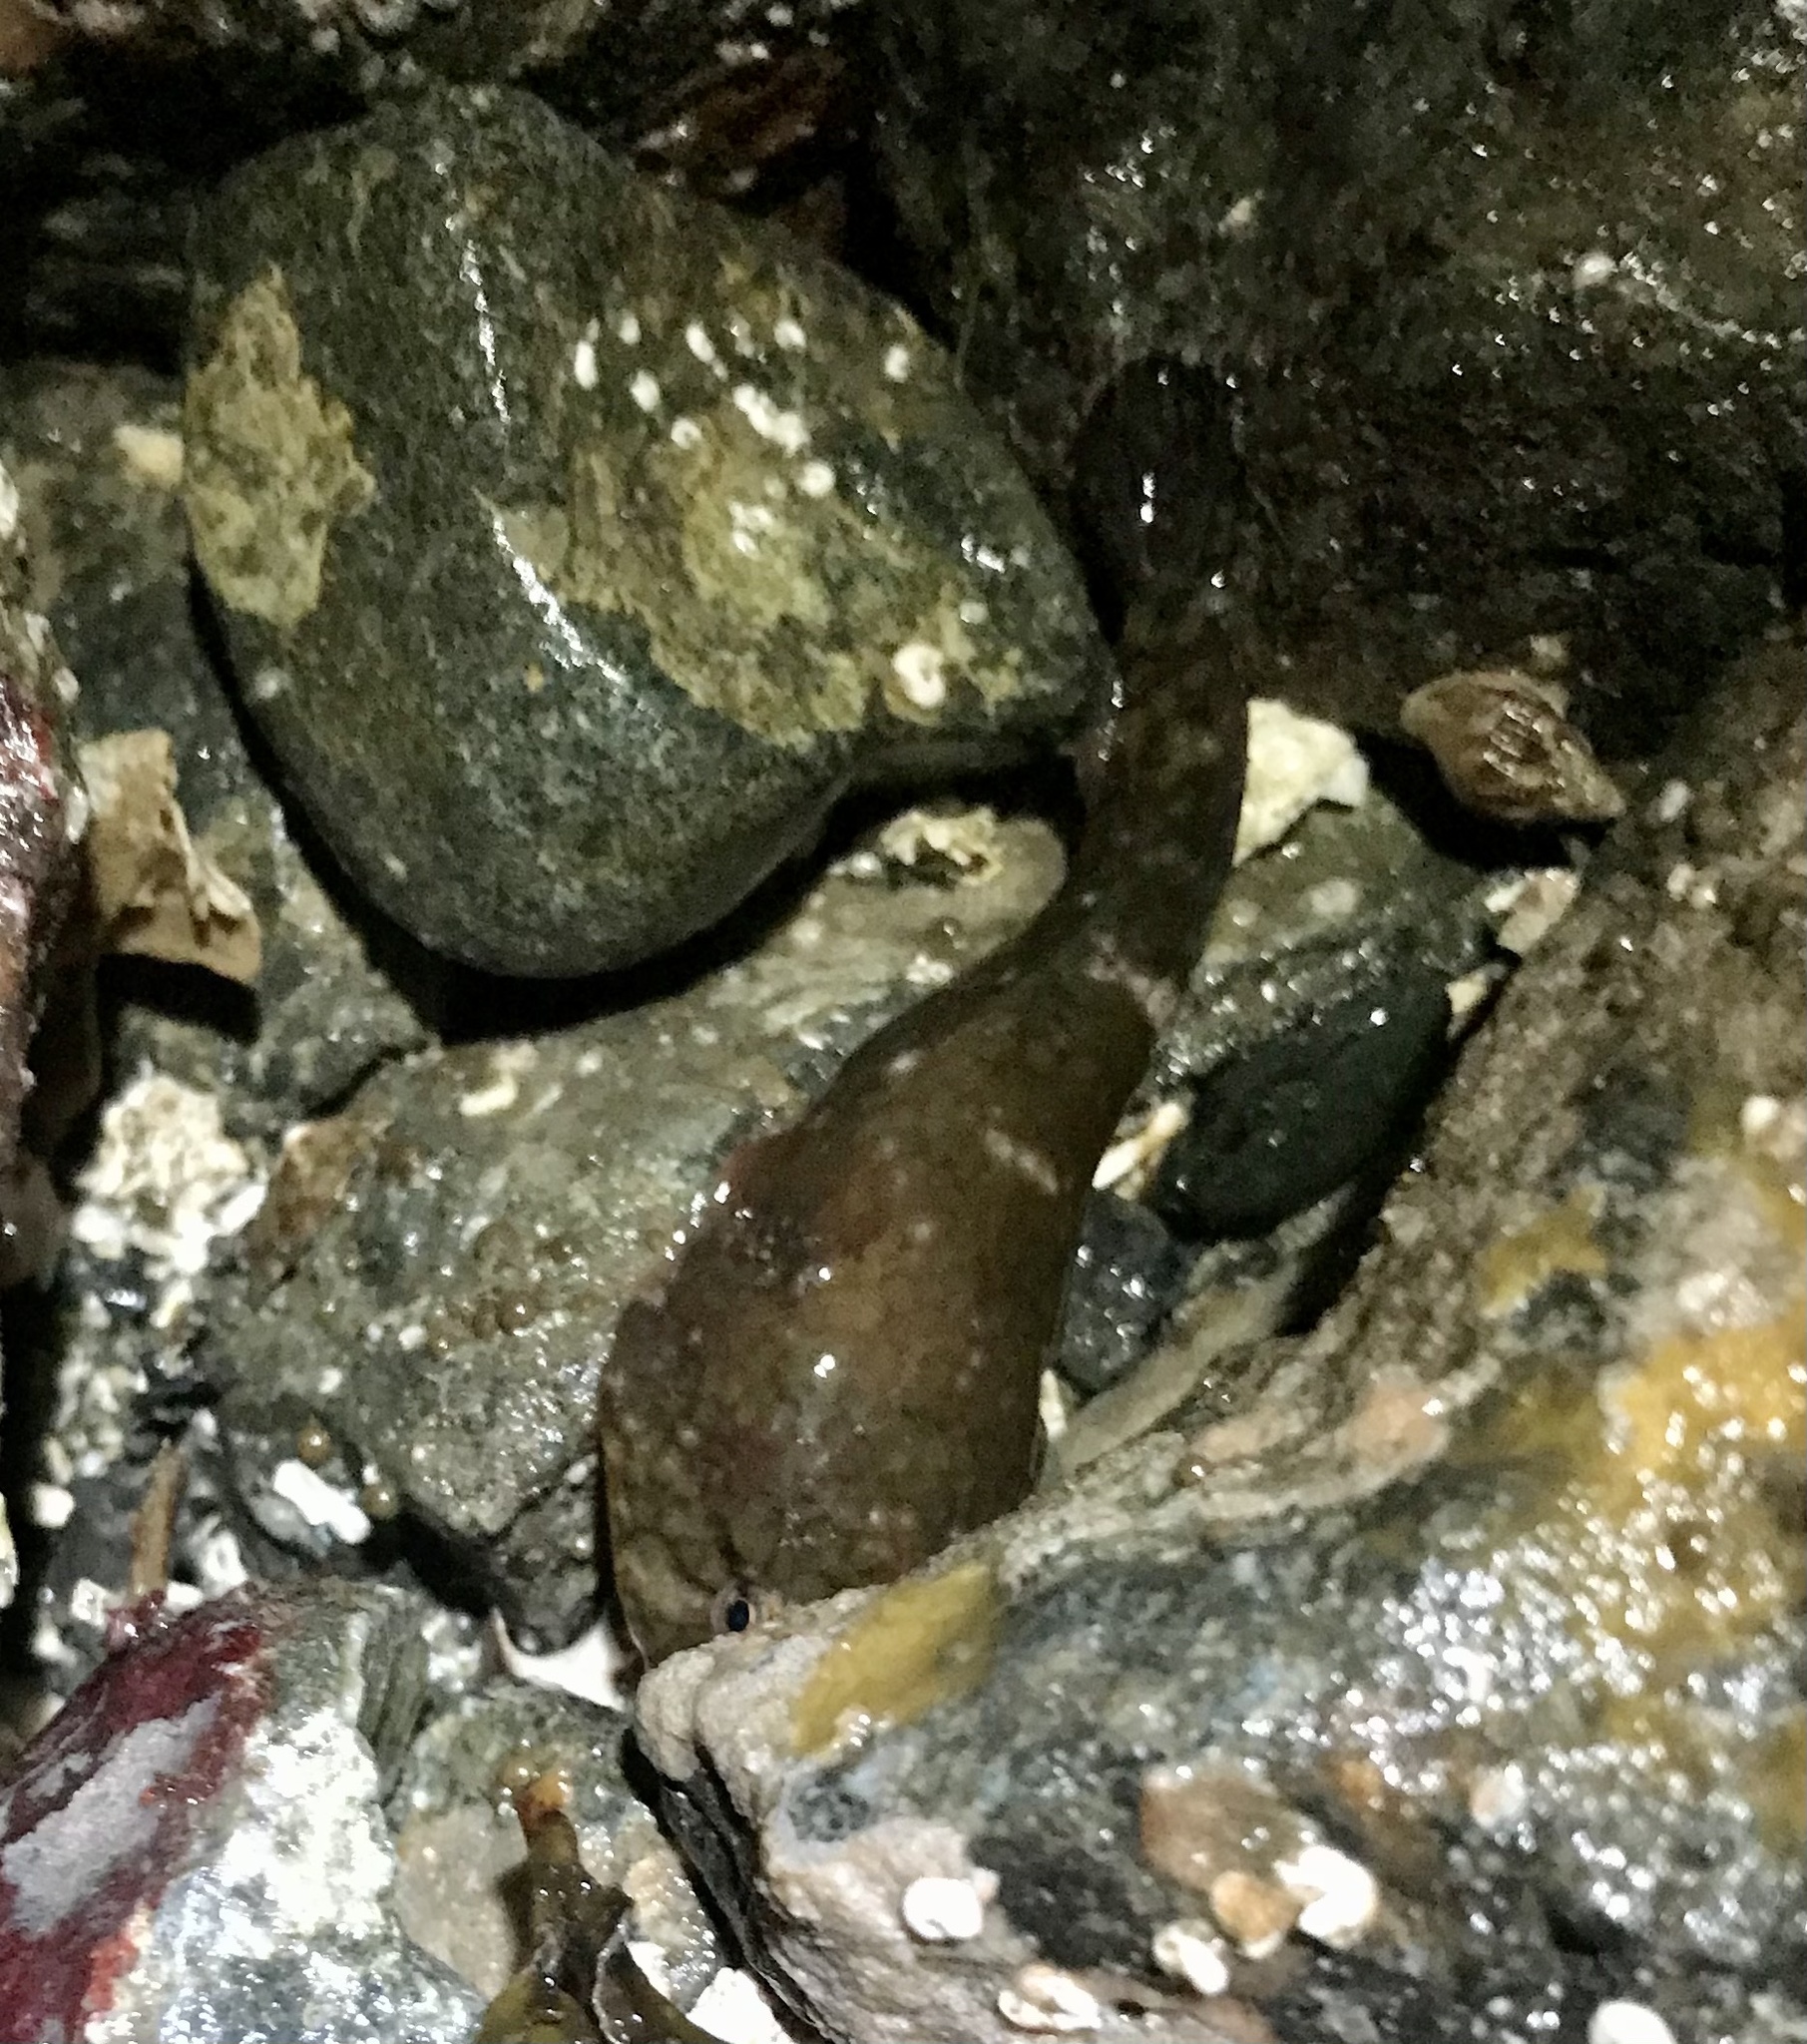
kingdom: Animalia
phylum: Chordata
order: Gobiesociformes
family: Gobiesocidae
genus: Gobiesox
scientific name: Gobiesox maeandricus
